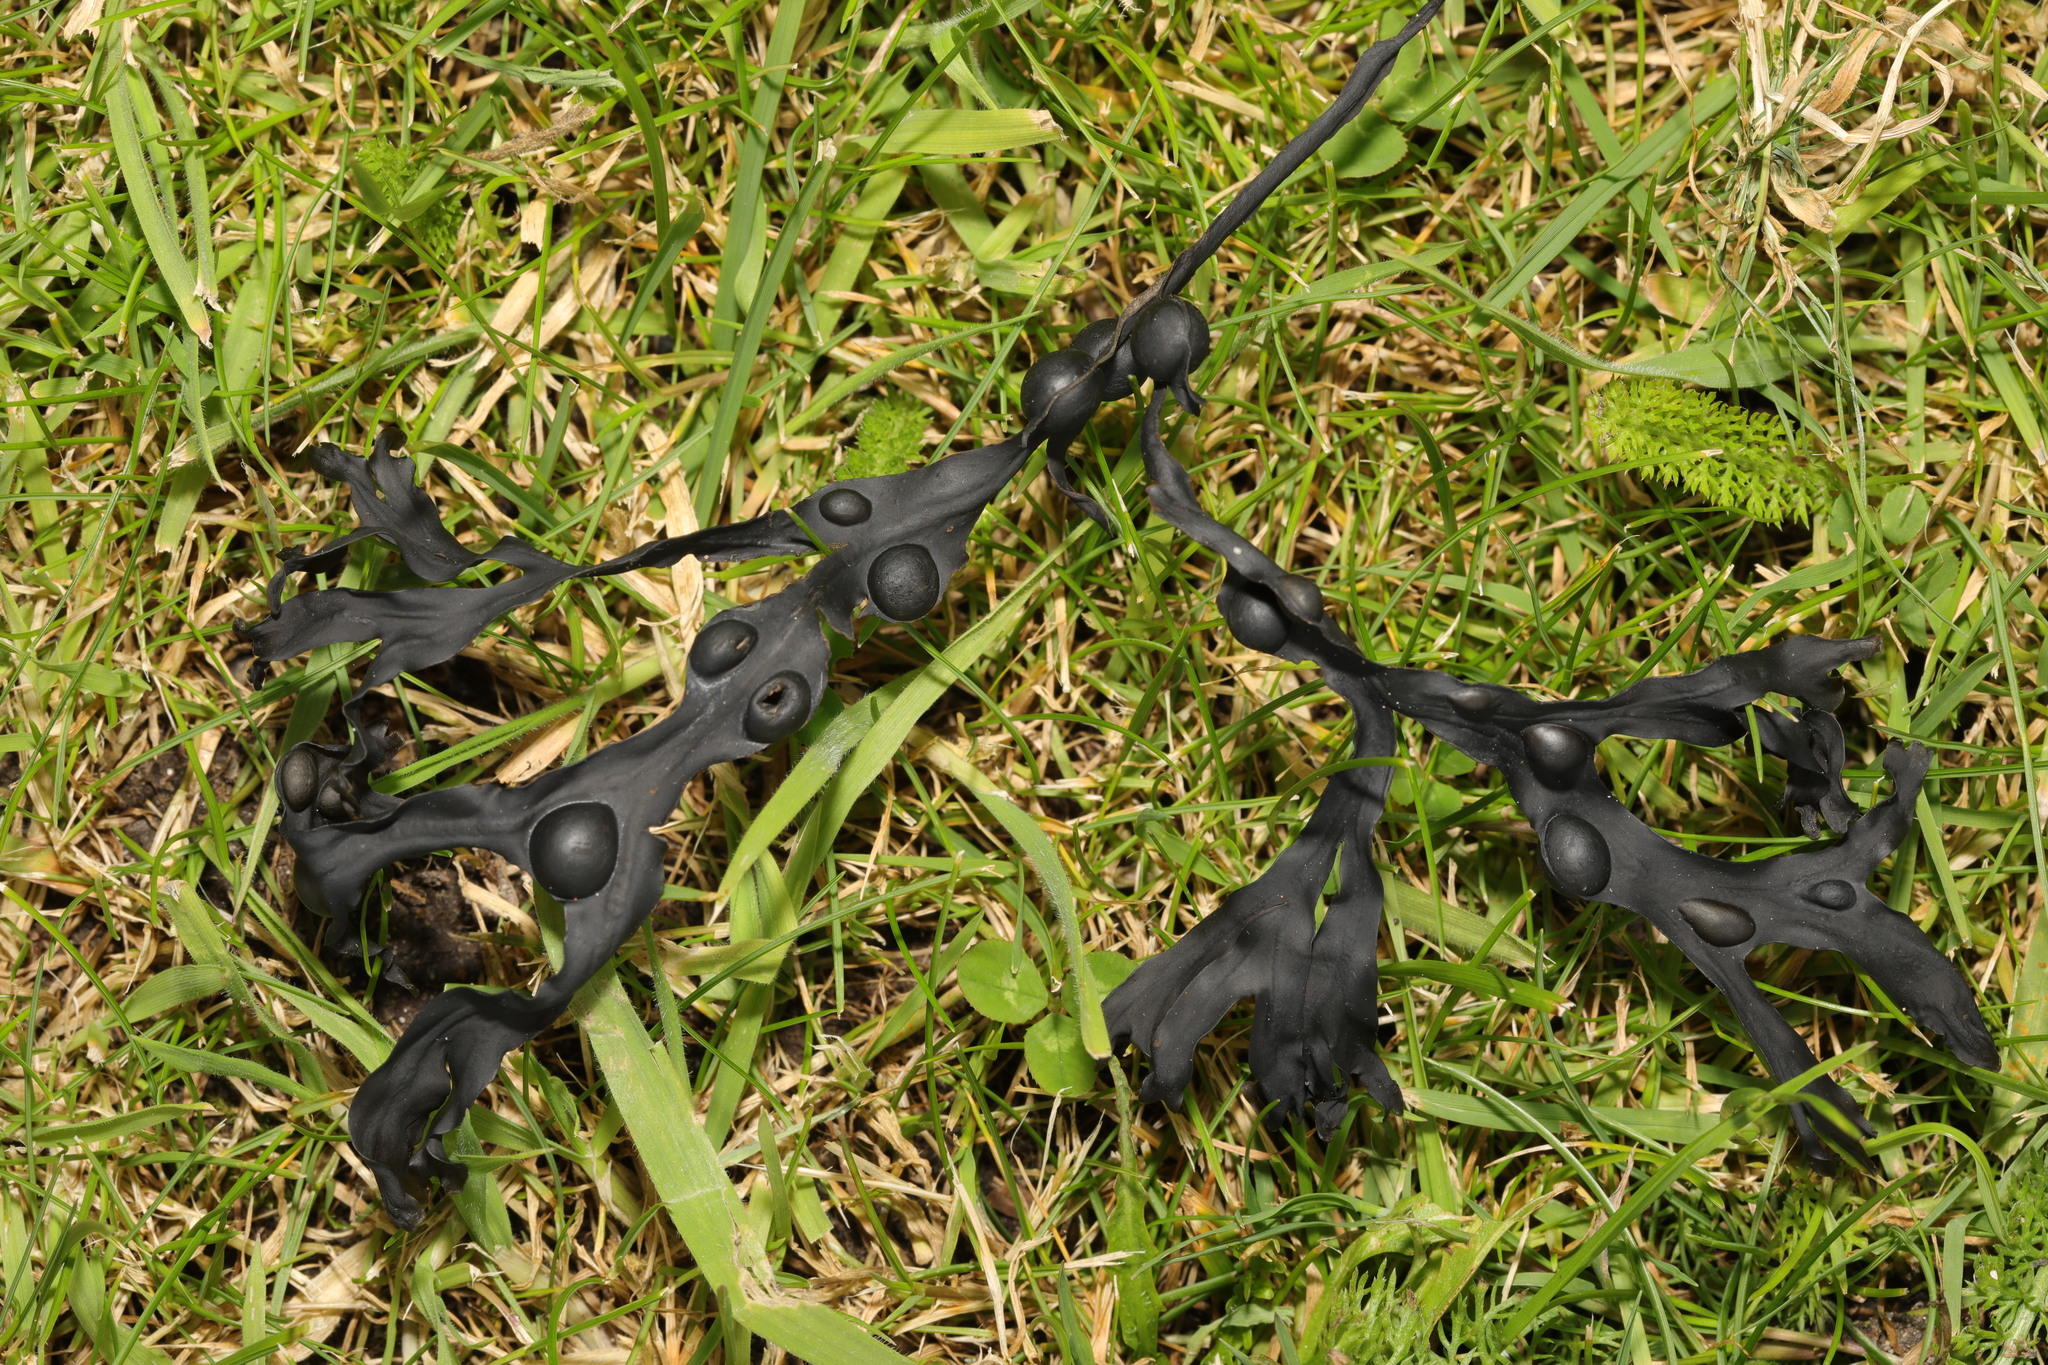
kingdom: Chromista
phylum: Ochrophyta
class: Phaeophyceae
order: Fucales
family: Fucaceae
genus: Fucus
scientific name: Fucus vesiculosus
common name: Bladder wrack
